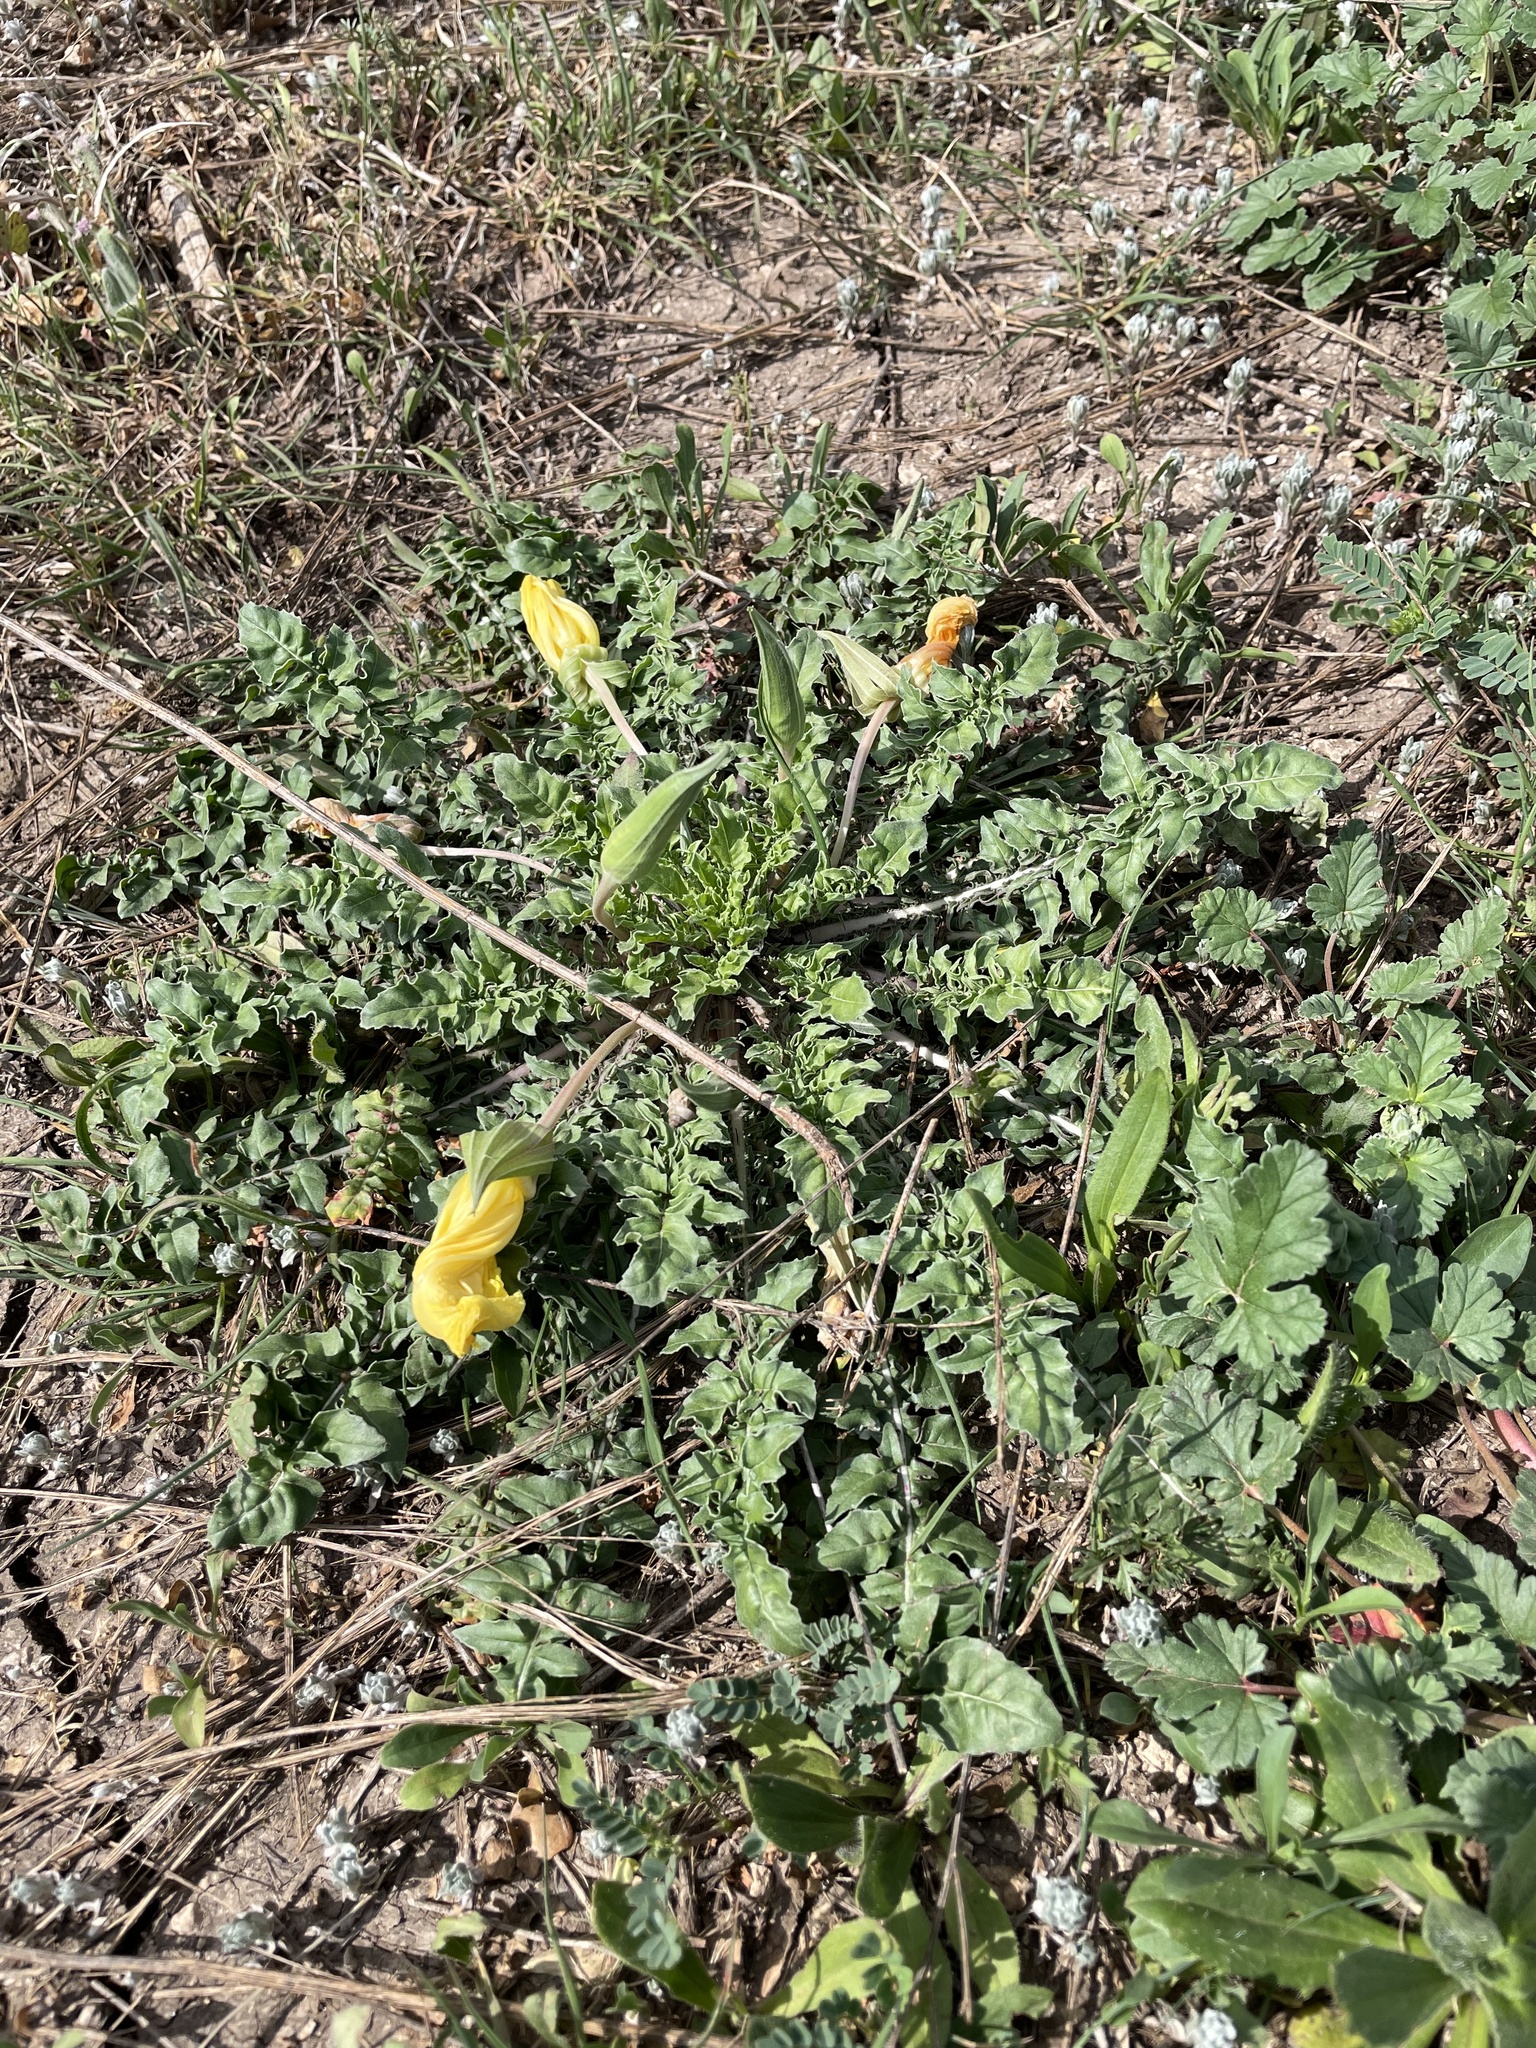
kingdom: Plantae
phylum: Tracheophyta
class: Magnoliopsida
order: Myrtales
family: Onagraceae
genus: Oenothera
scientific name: Oenothera triloba
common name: Sessile evening-primrose
